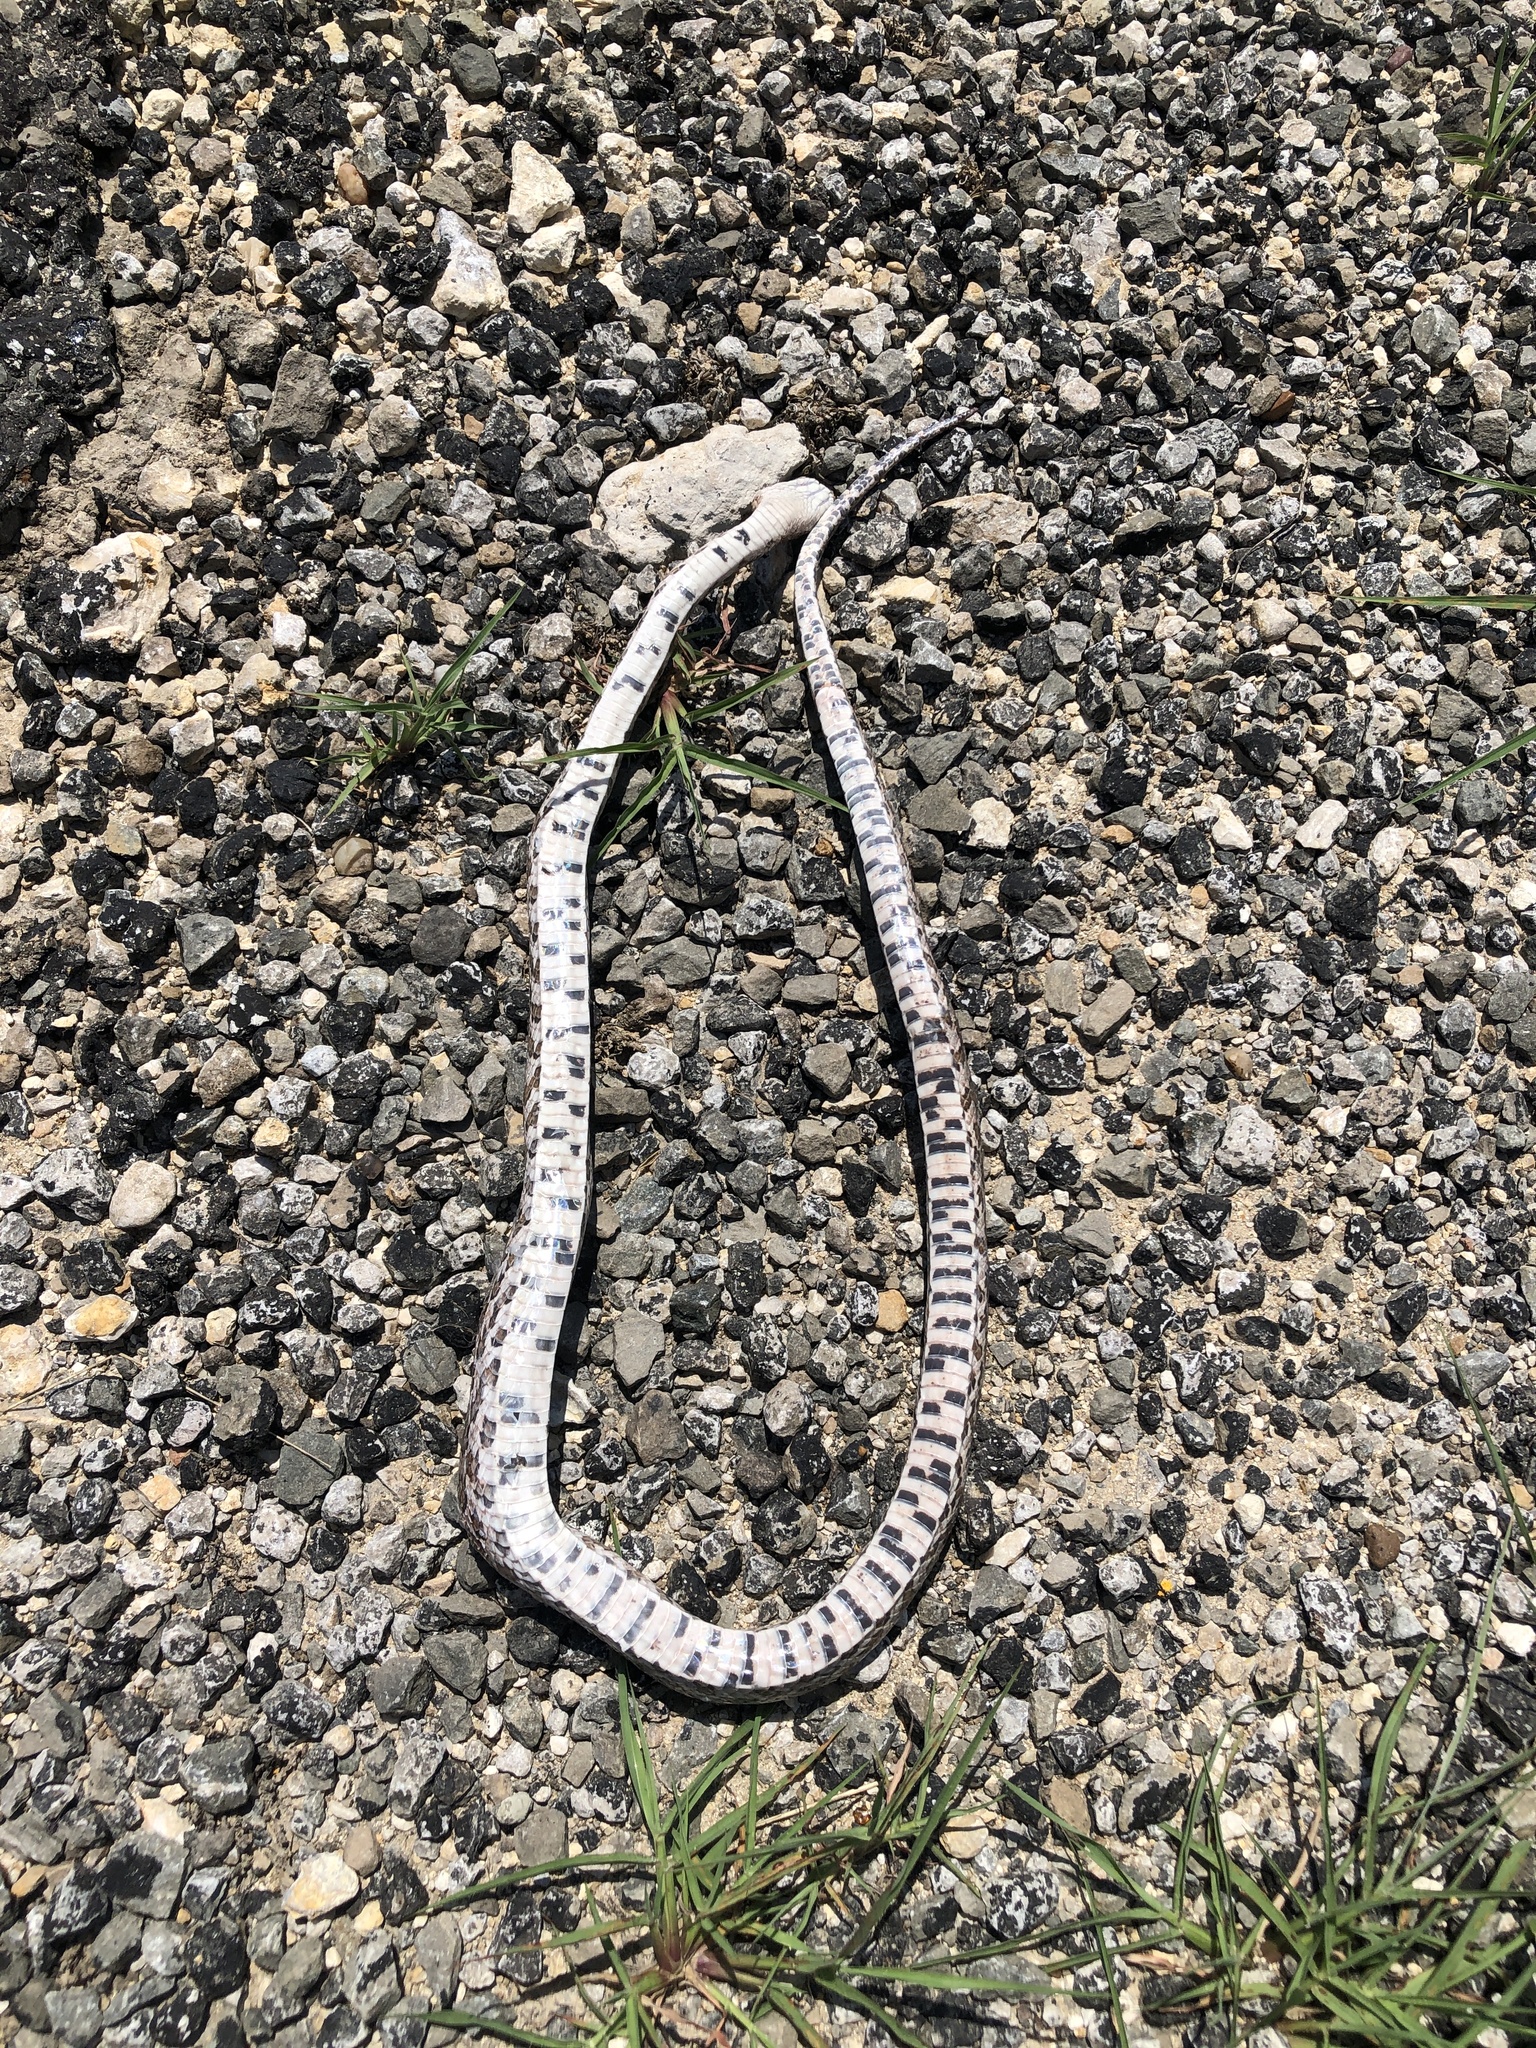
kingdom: Animalia
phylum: Chordata
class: Squamata
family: Colubridae
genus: Pantherophis
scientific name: Pantherophis emoryi
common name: Great plains rat snake
